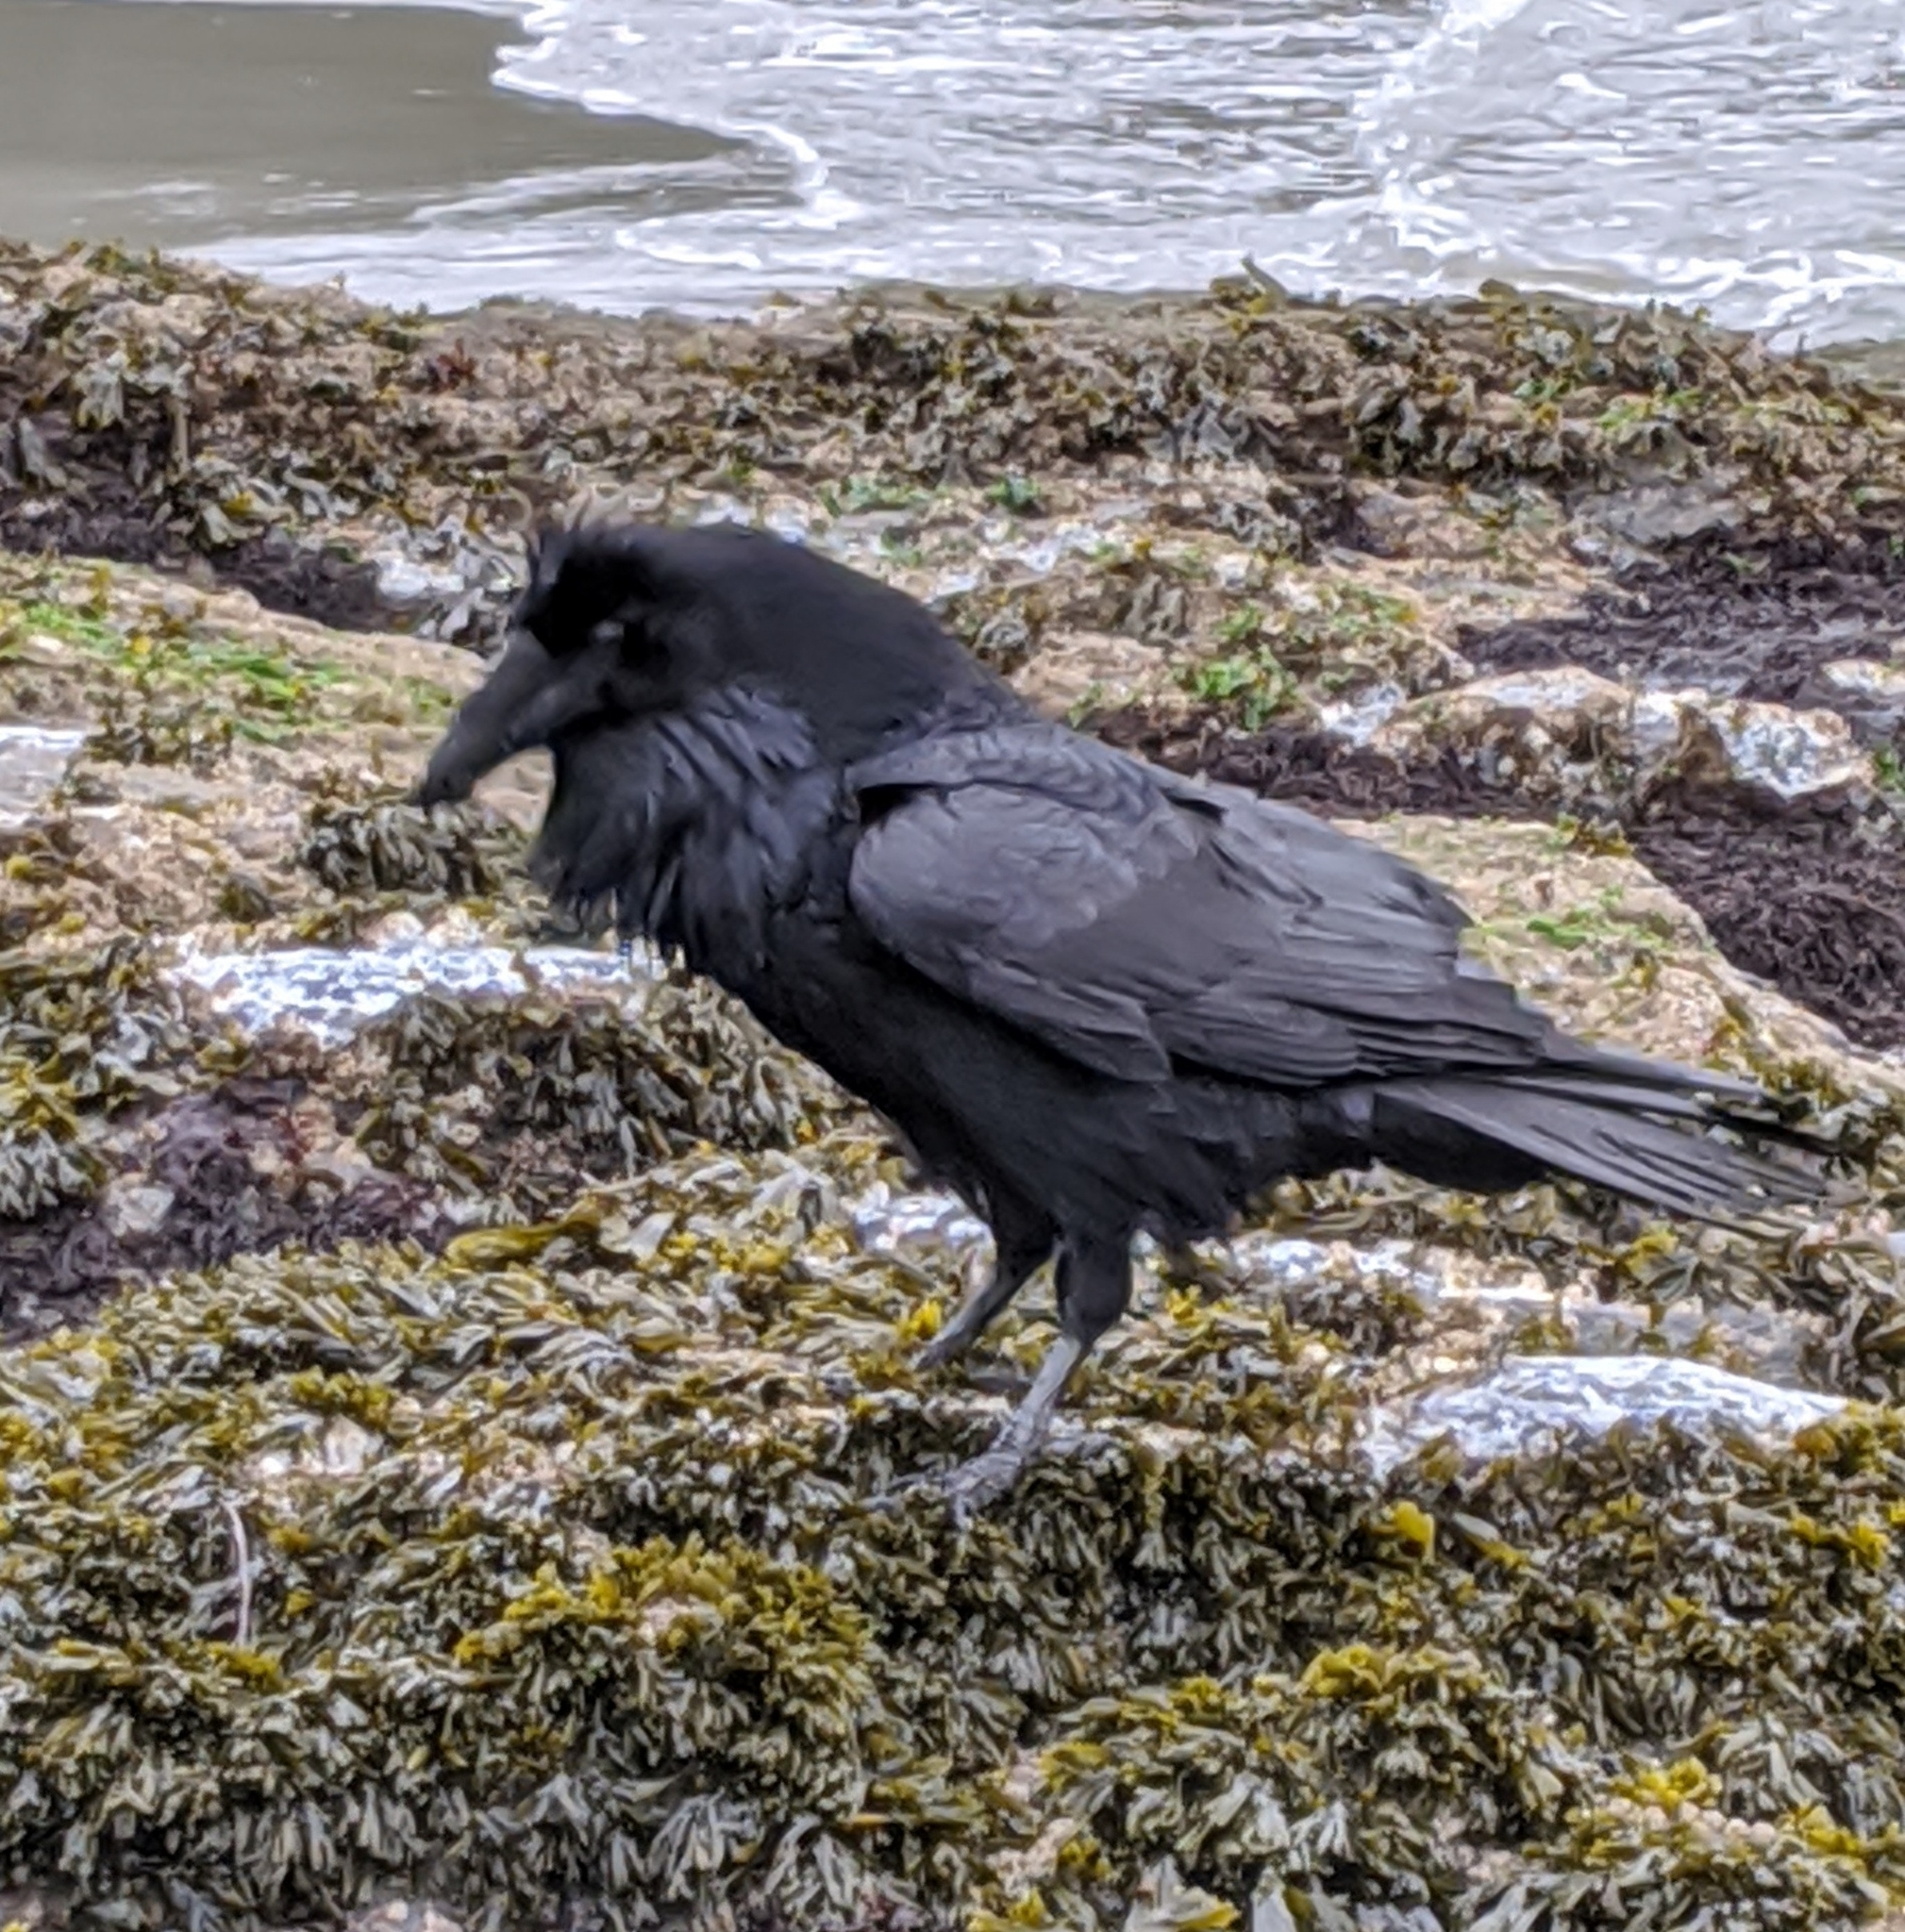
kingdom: Animalia
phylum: Chordata
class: Aves
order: Passeriformes
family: Corvidae
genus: Corvus
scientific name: Corvus corax
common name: Common raven
